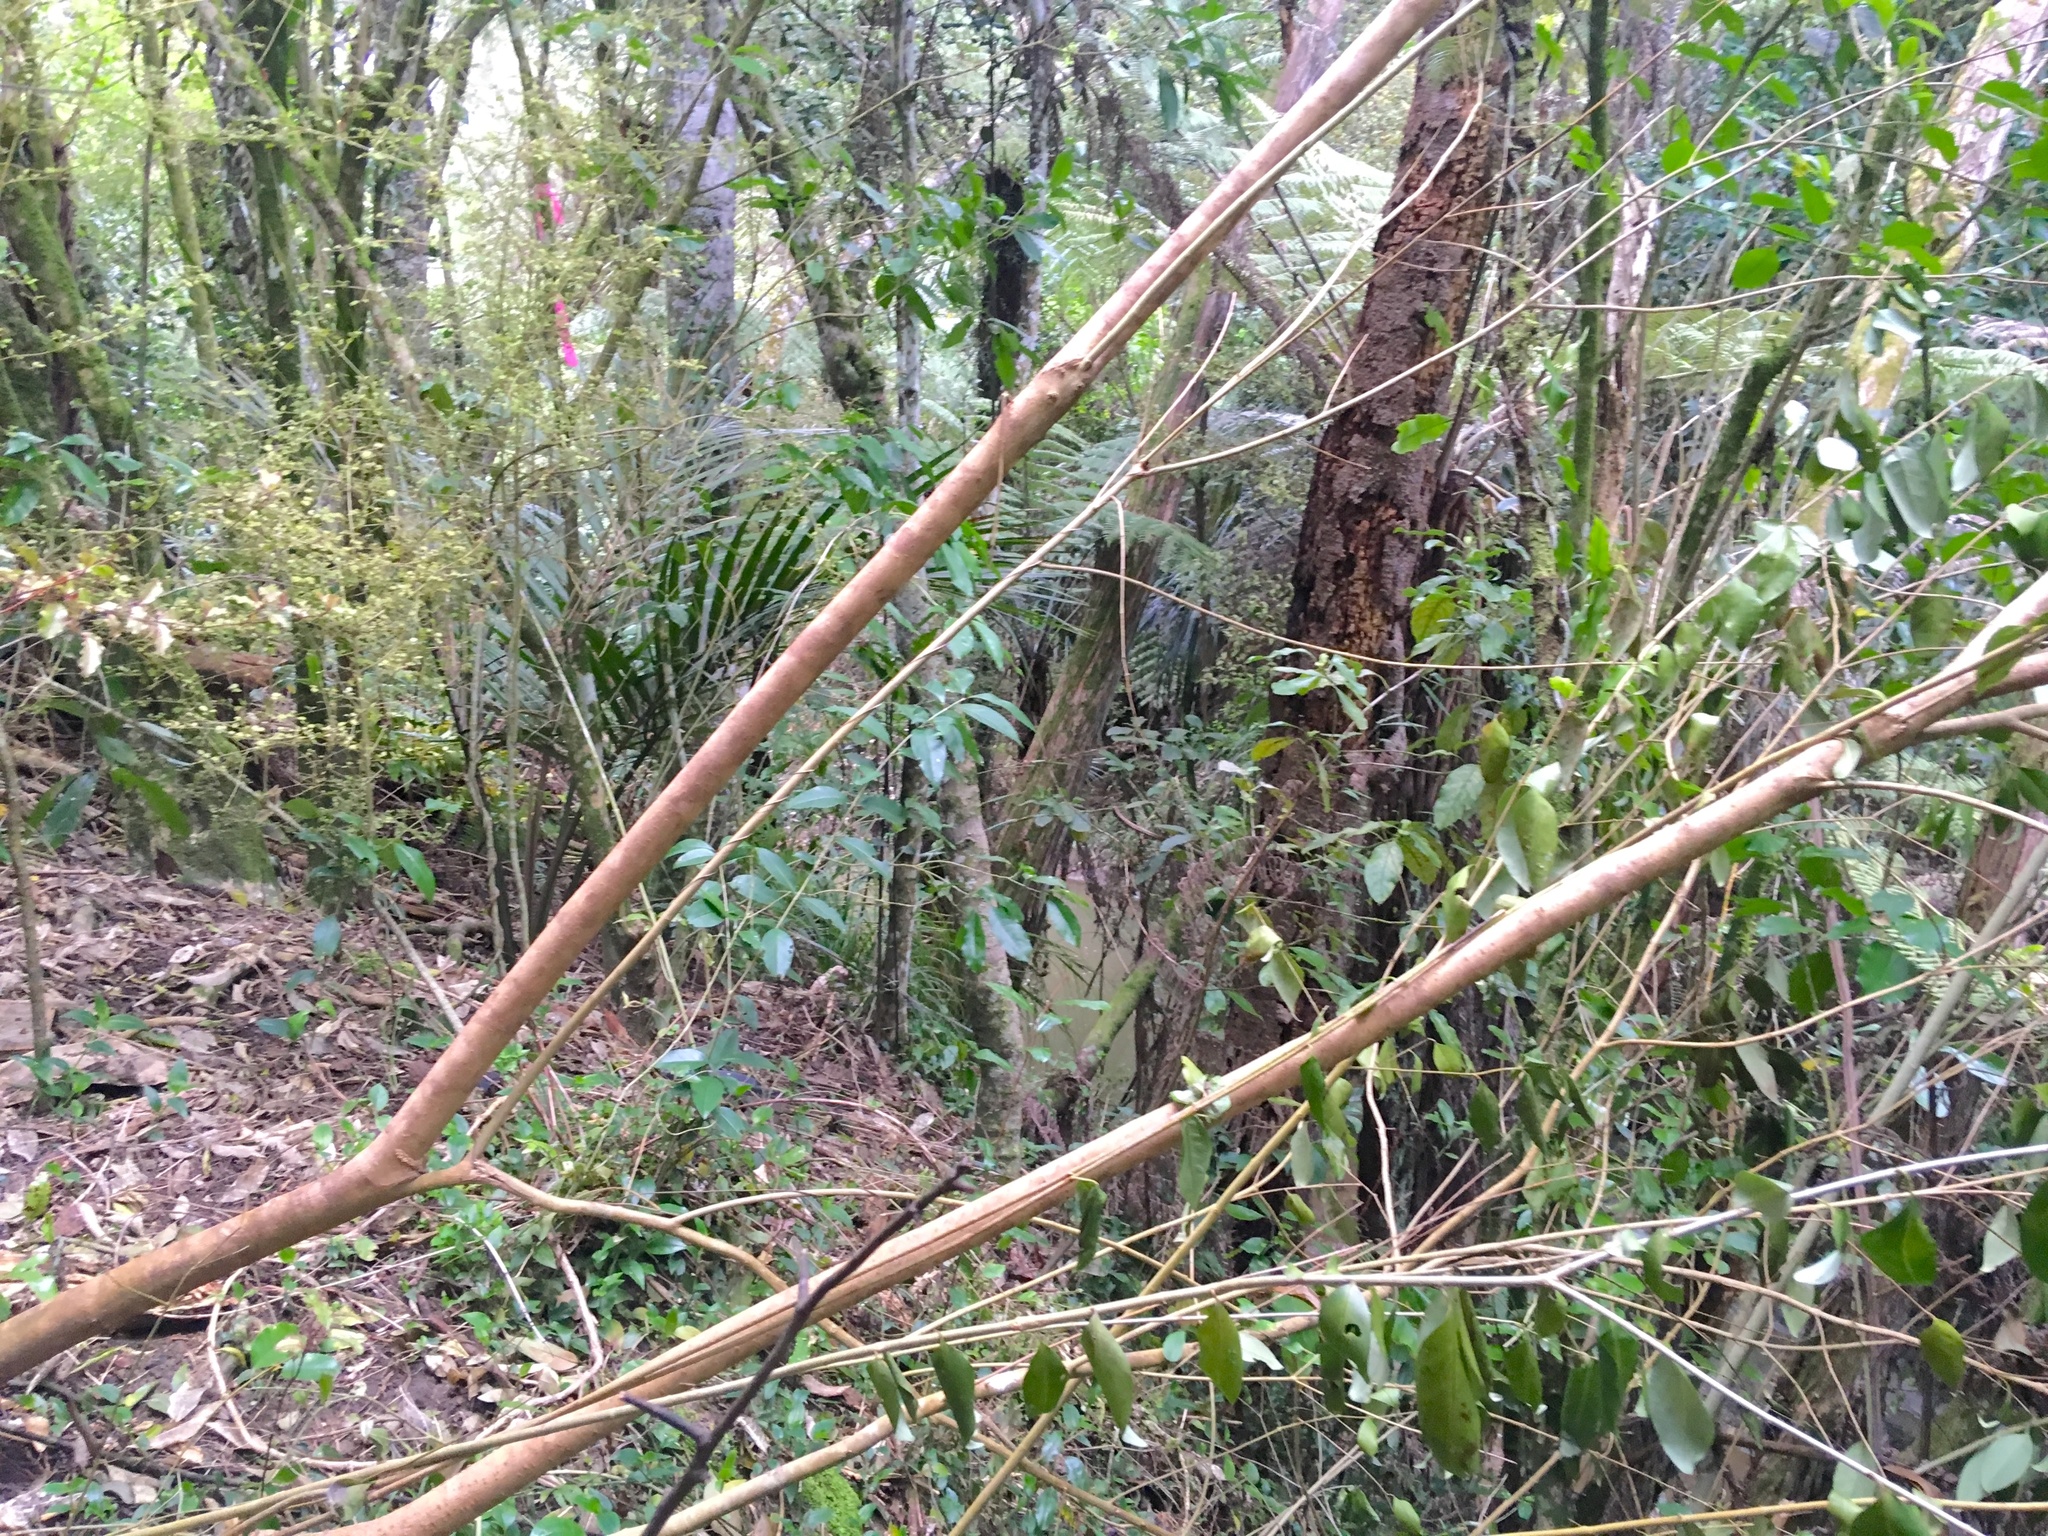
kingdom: Plantae
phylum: Tracheophyta
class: Magnoliopsida
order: Lamiales
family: Oleaceae
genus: Ligustrum
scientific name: Ligustrum lucidum
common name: Glossy privet
